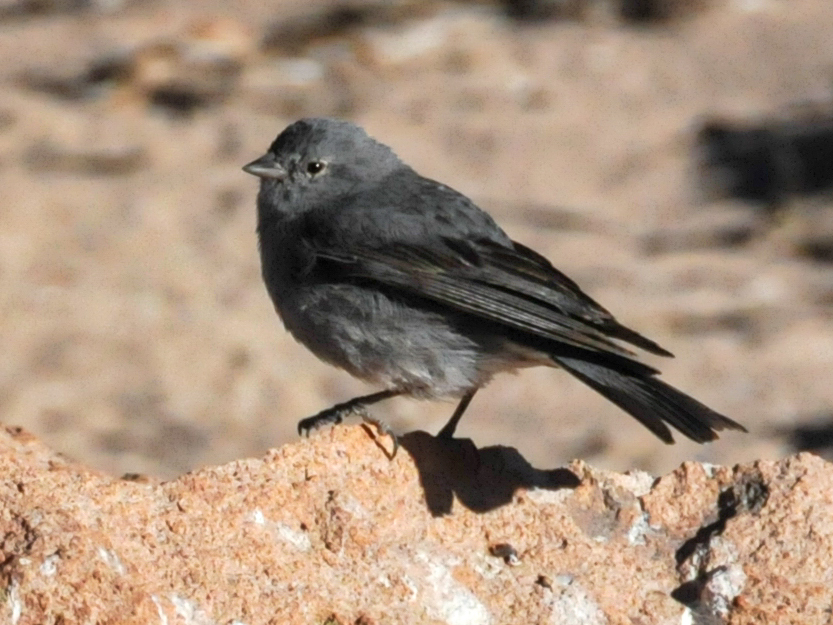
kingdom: Animalia
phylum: Chordata
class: Aves
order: Passeriformes
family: Thraupidae
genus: Geospizopsis
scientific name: Geospizopsis unicolor
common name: Plumbeous sierra-finch
